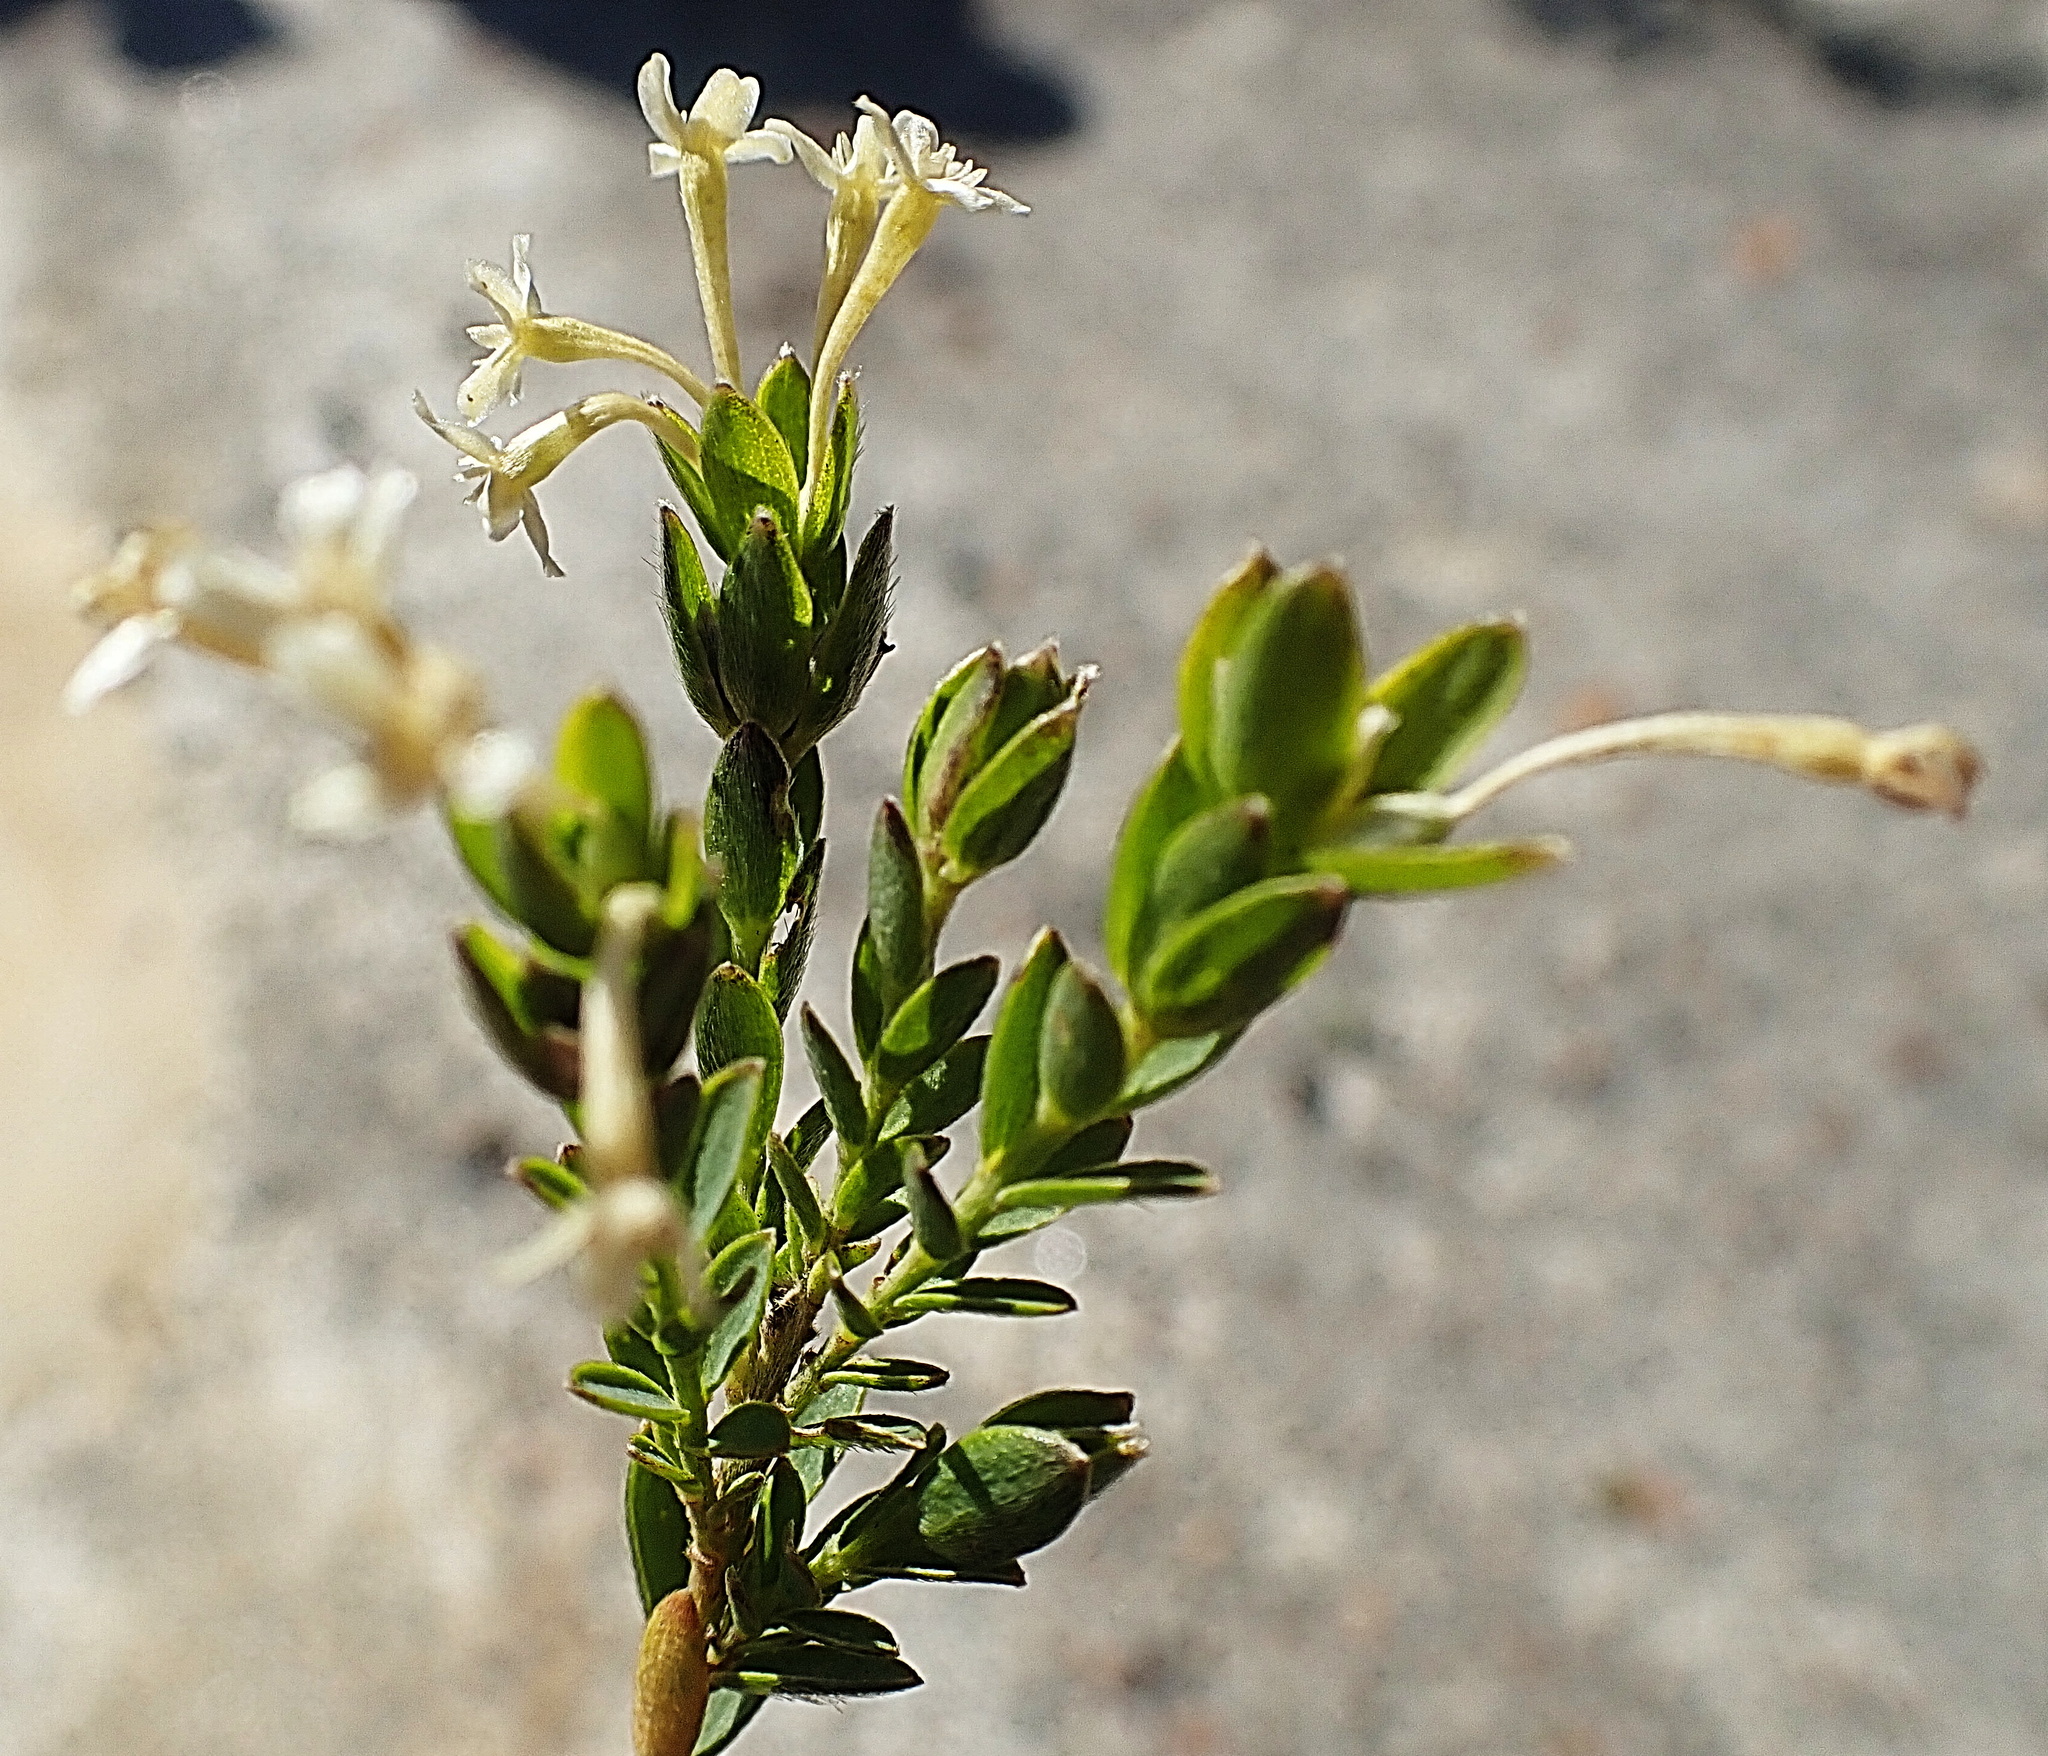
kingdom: Plantae
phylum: Tracheophyta
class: Magnoliopsida
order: Malvales
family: Thymelaeaceae
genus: Gnidia
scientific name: Gnidia caniflora
